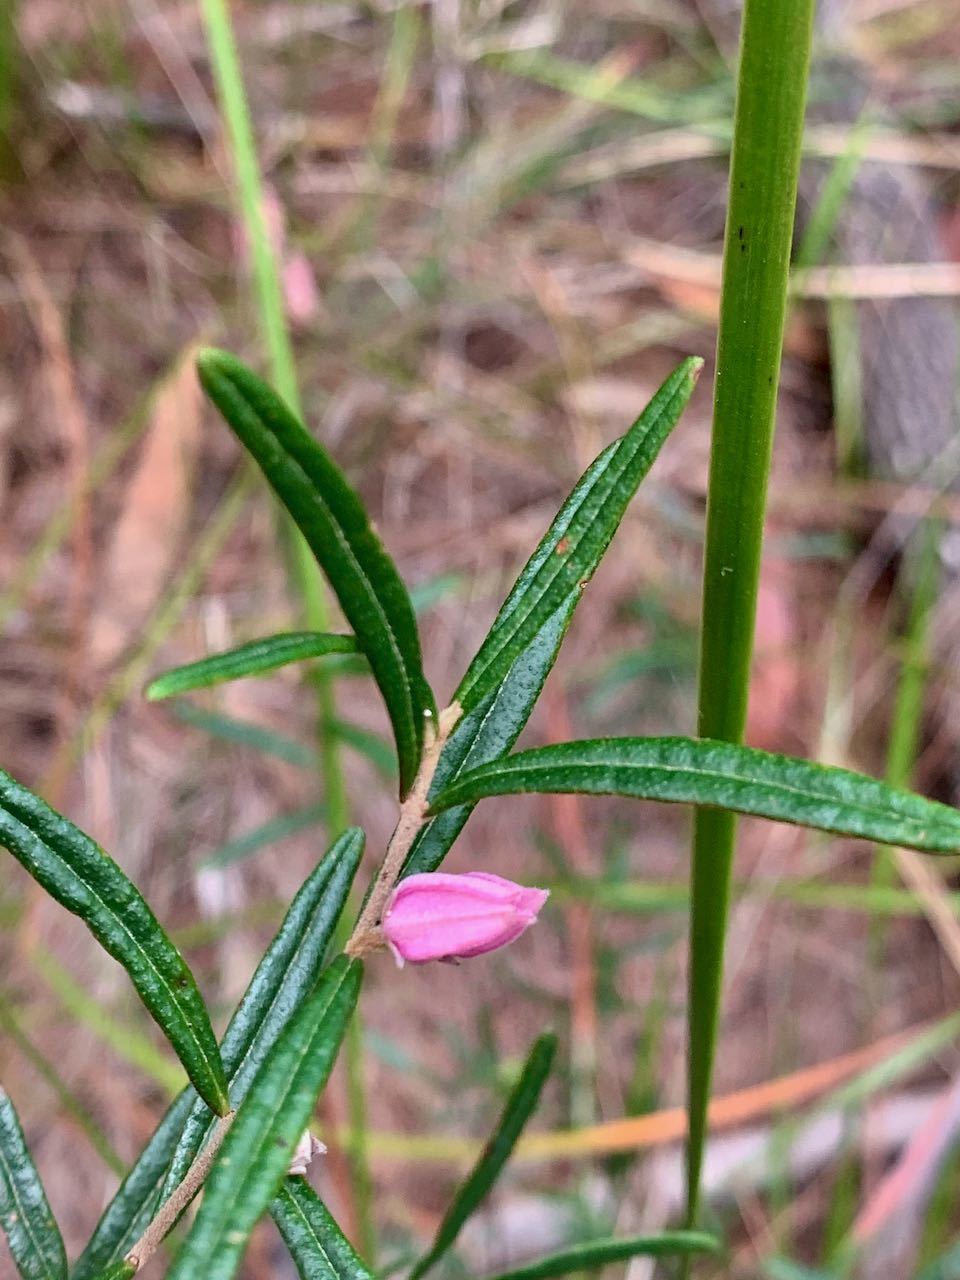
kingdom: Plantae
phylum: Tracheophyta
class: Magnoliopsida
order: Sapindales
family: Rutaceae
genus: Boronia
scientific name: Boronia rosmarinifolia
